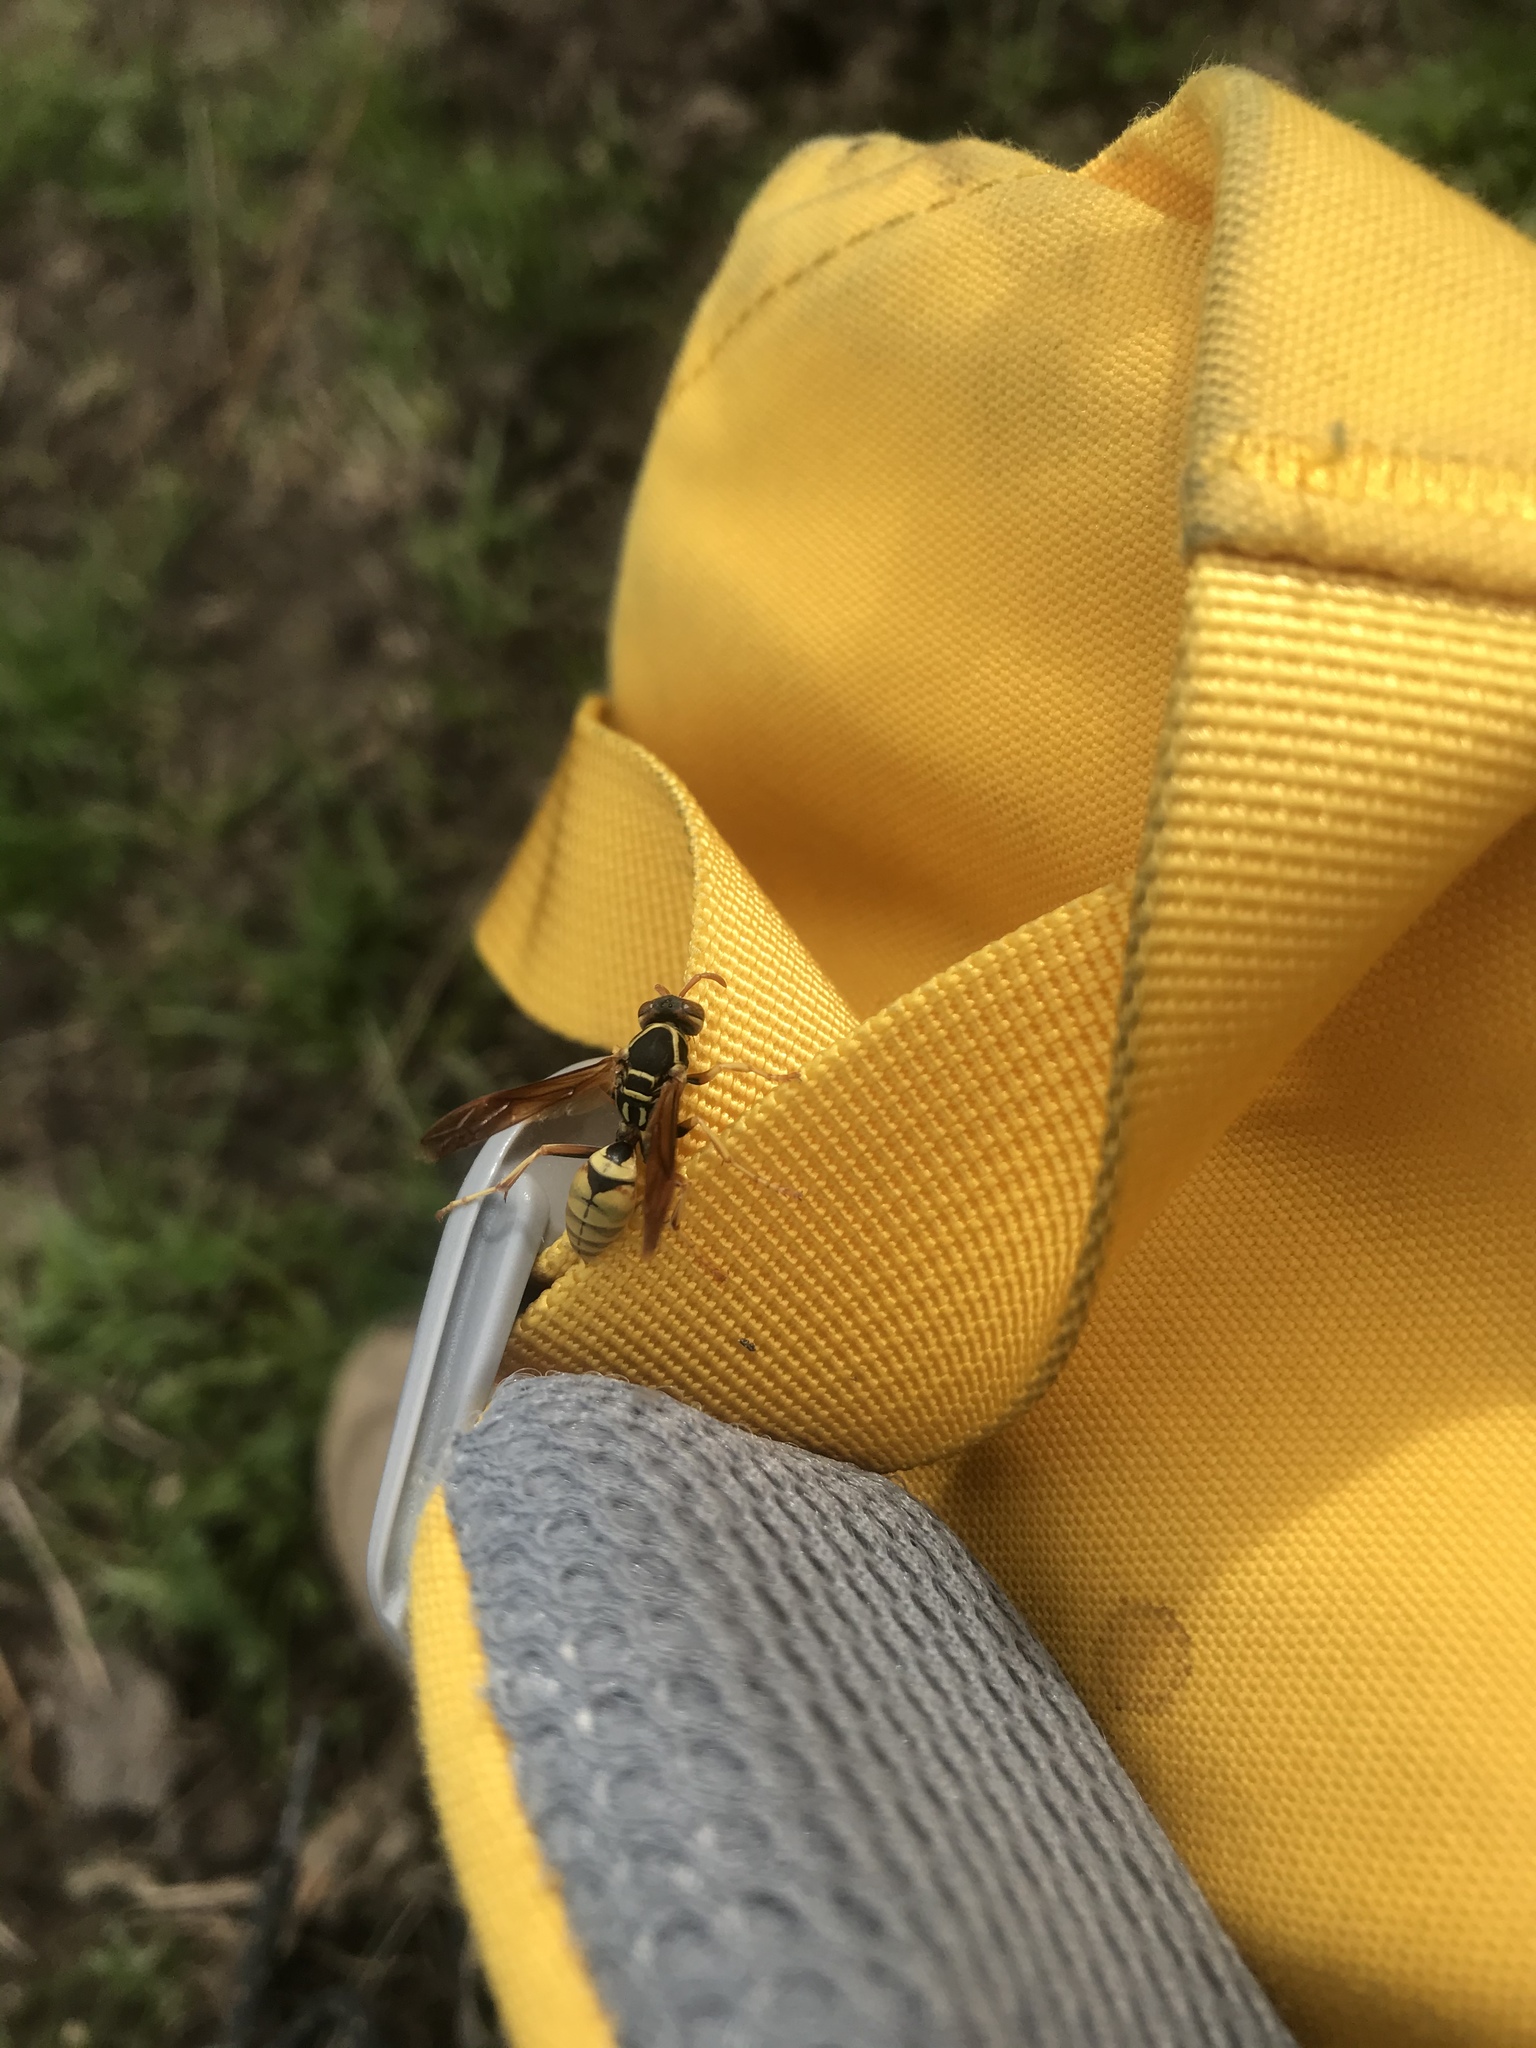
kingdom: Animalia
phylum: Arthropoda
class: Insecta
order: Hymenoptera
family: Eumenidae
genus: Polistes
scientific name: Polistes aurifer
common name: Paper wasp
